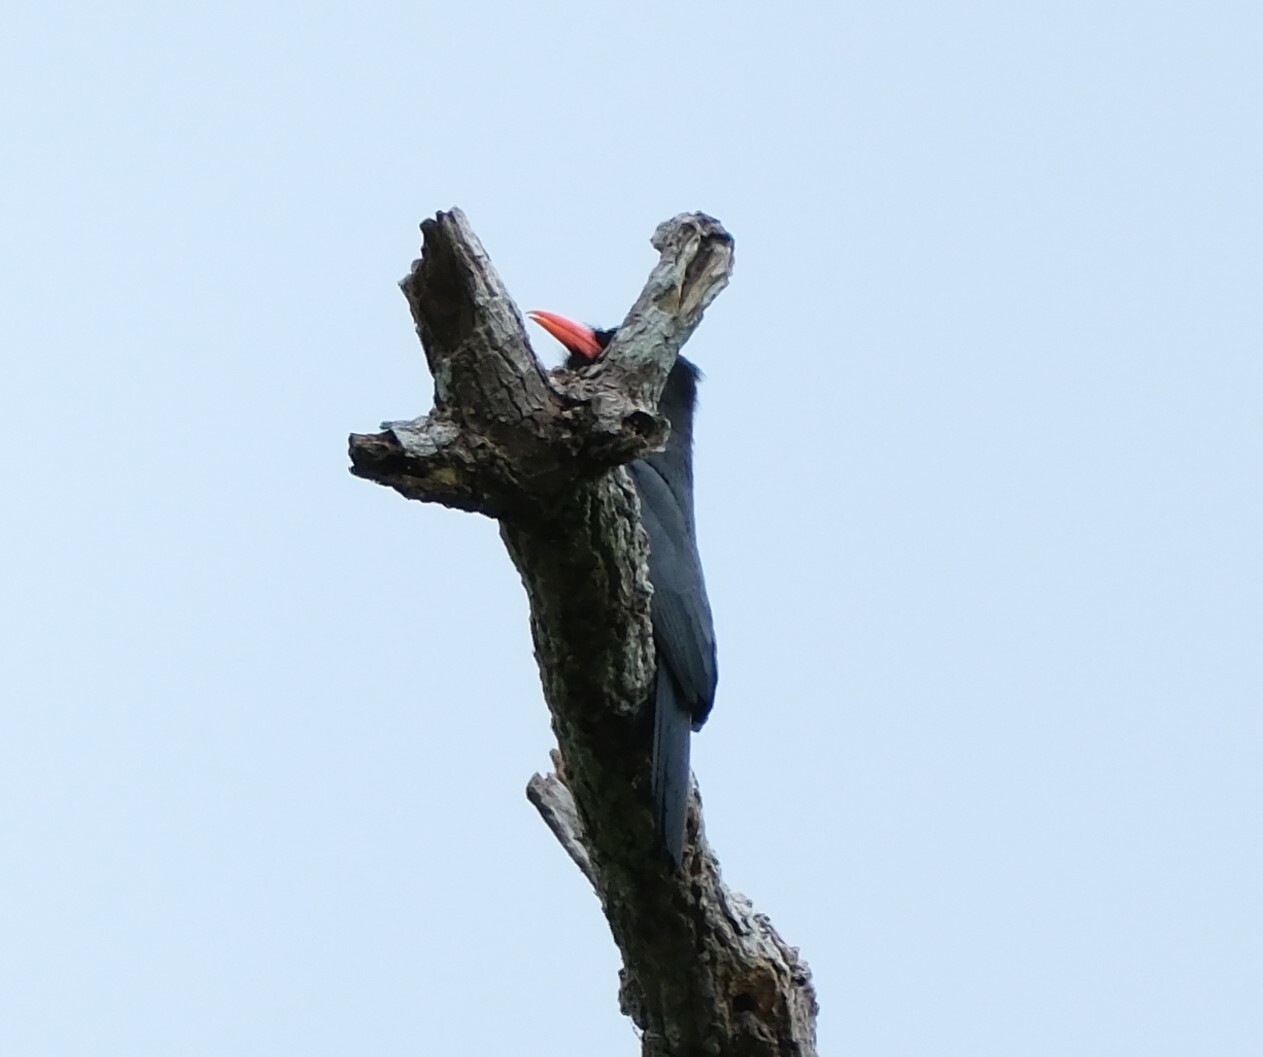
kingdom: Animalia
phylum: Chordata
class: Aves
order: Piciformes
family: Bucconidae
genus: Monasa
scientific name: Monasa nigrifrons
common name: Black-fronted nunbird
